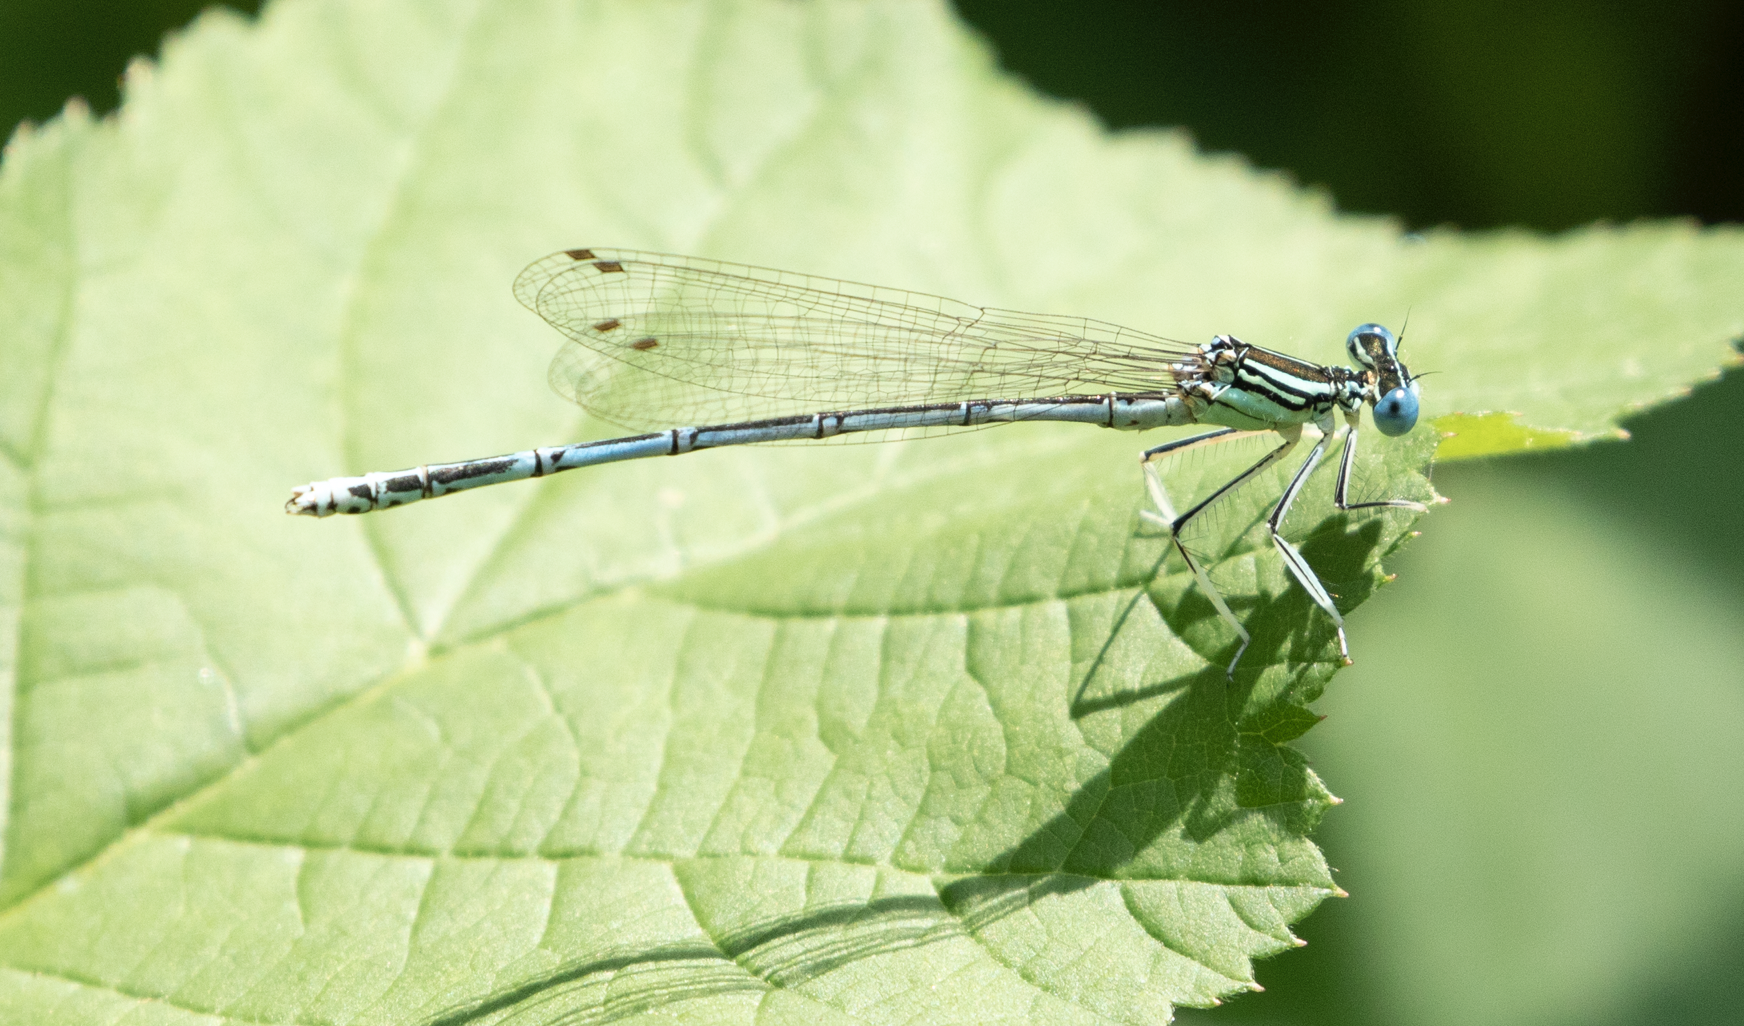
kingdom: Animalia
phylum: Arthropoda
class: Insecta
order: Odonata
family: Platycnemididae
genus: Platycnemis
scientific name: Platycnemis pennipes
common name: White-legged damselfly
